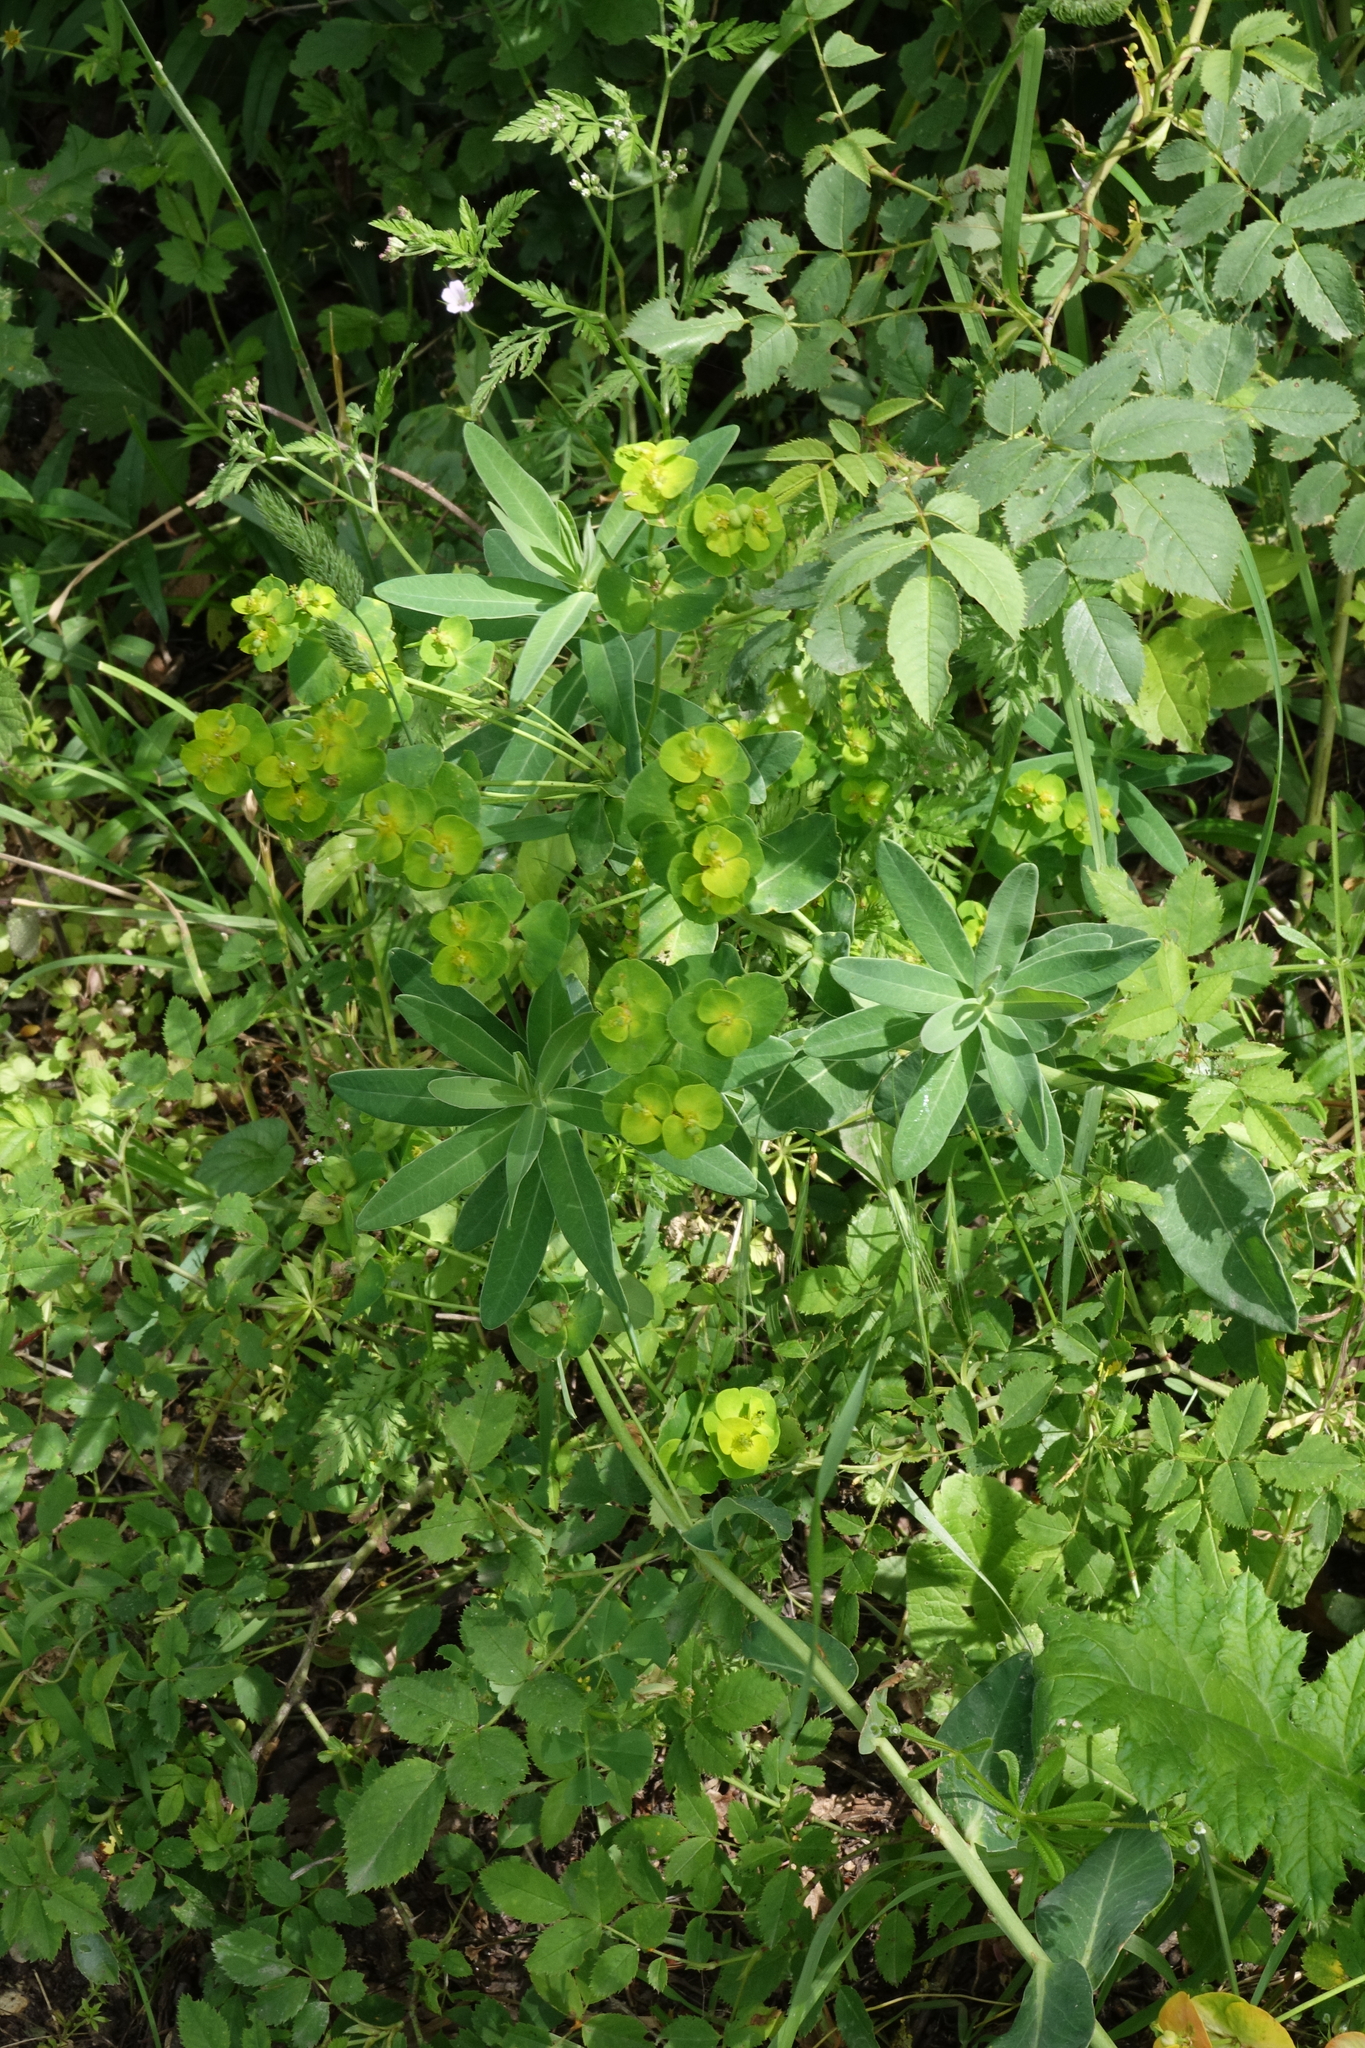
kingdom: Plantae
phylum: Tracheophyta
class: Magnoliopsida
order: Malpighiales
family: Euphorbiaceae
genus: Euphorbia
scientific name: Euphorbia iberica
